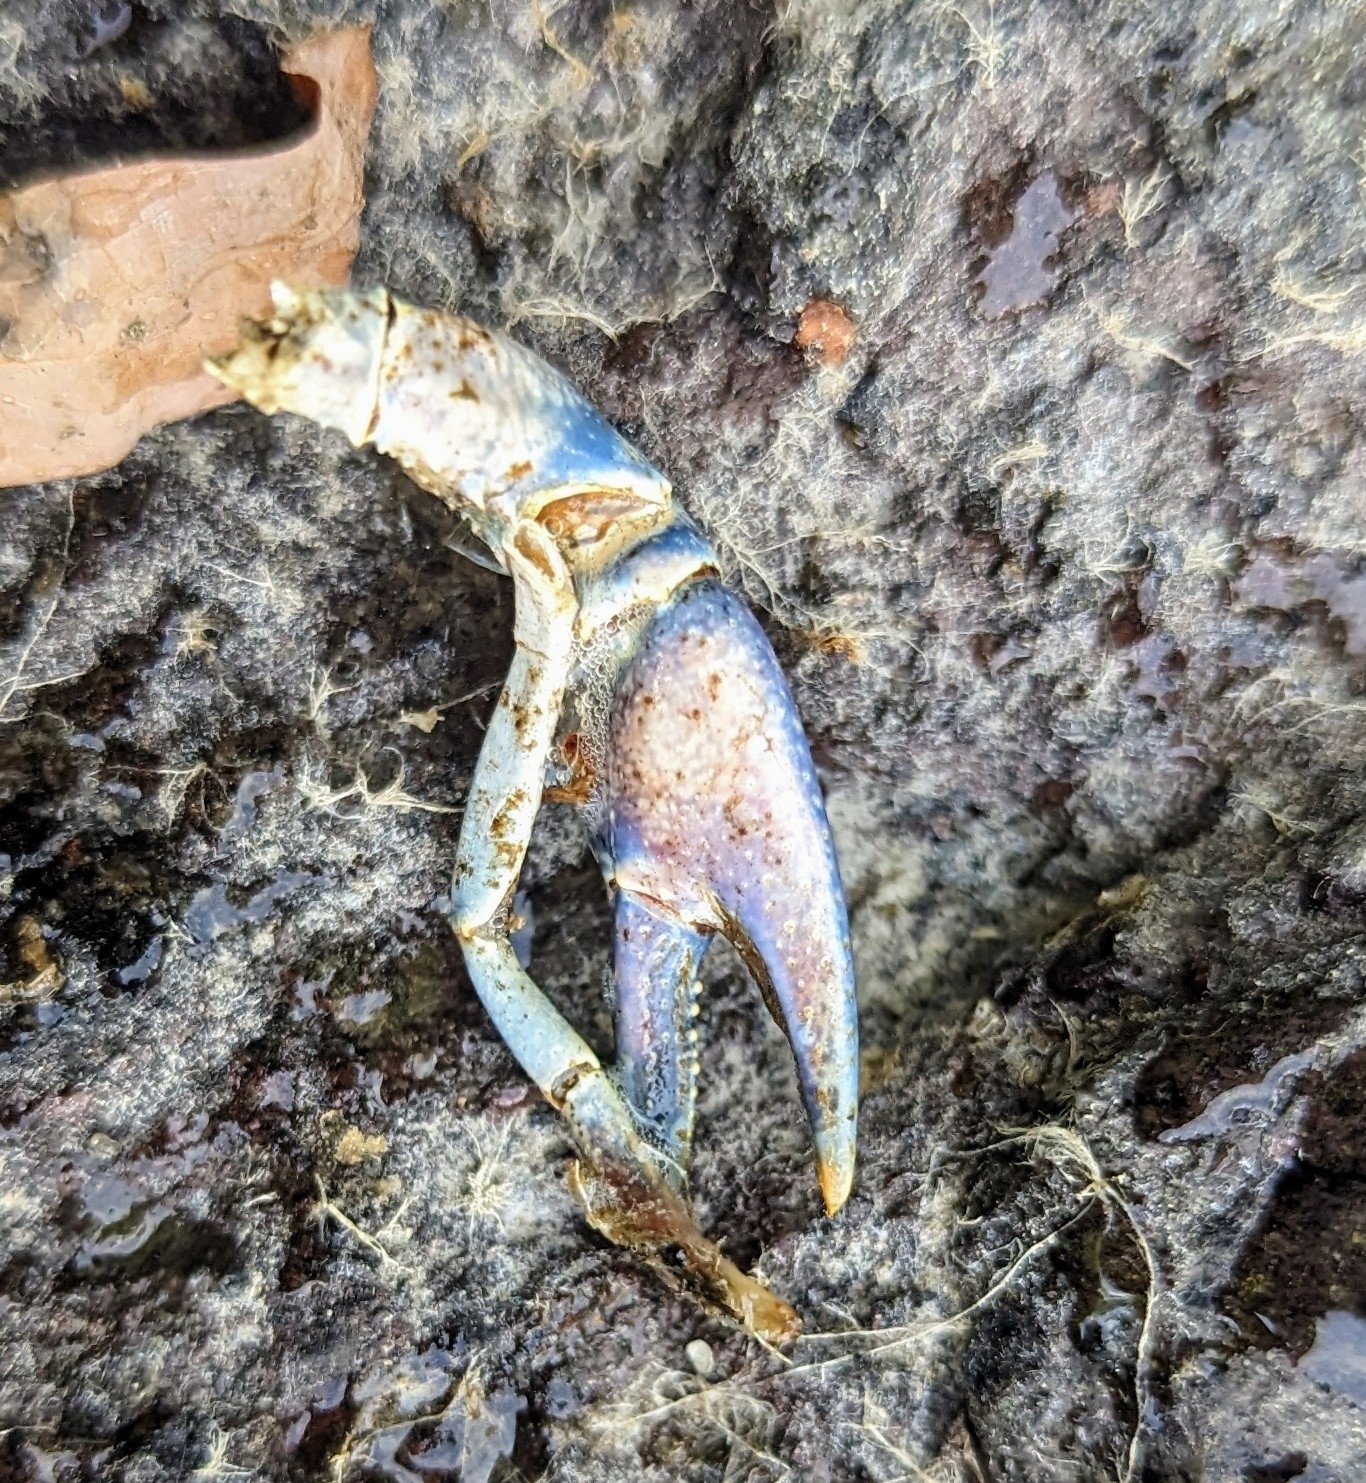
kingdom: Animalia
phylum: Arthropoda
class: Malacostraca
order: Decapoda
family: Cambaridae
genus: Faxonius
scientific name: Faxonius virilis
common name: Virile crayfish
